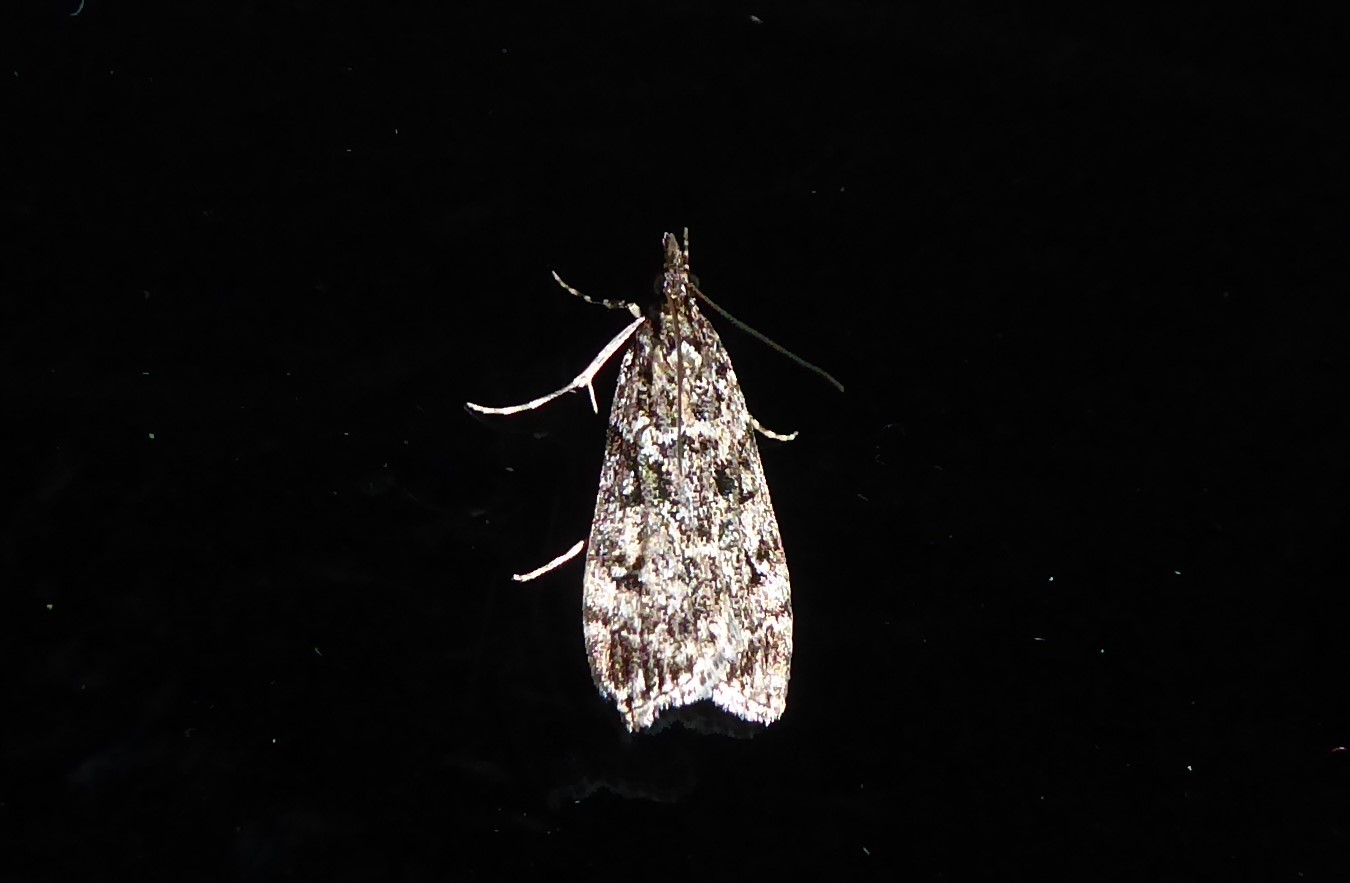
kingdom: Animalia
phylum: Arthropoda
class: Insecta
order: Lepidoptera
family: Crambidae
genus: Eudonia
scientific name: Eudonia philerga
